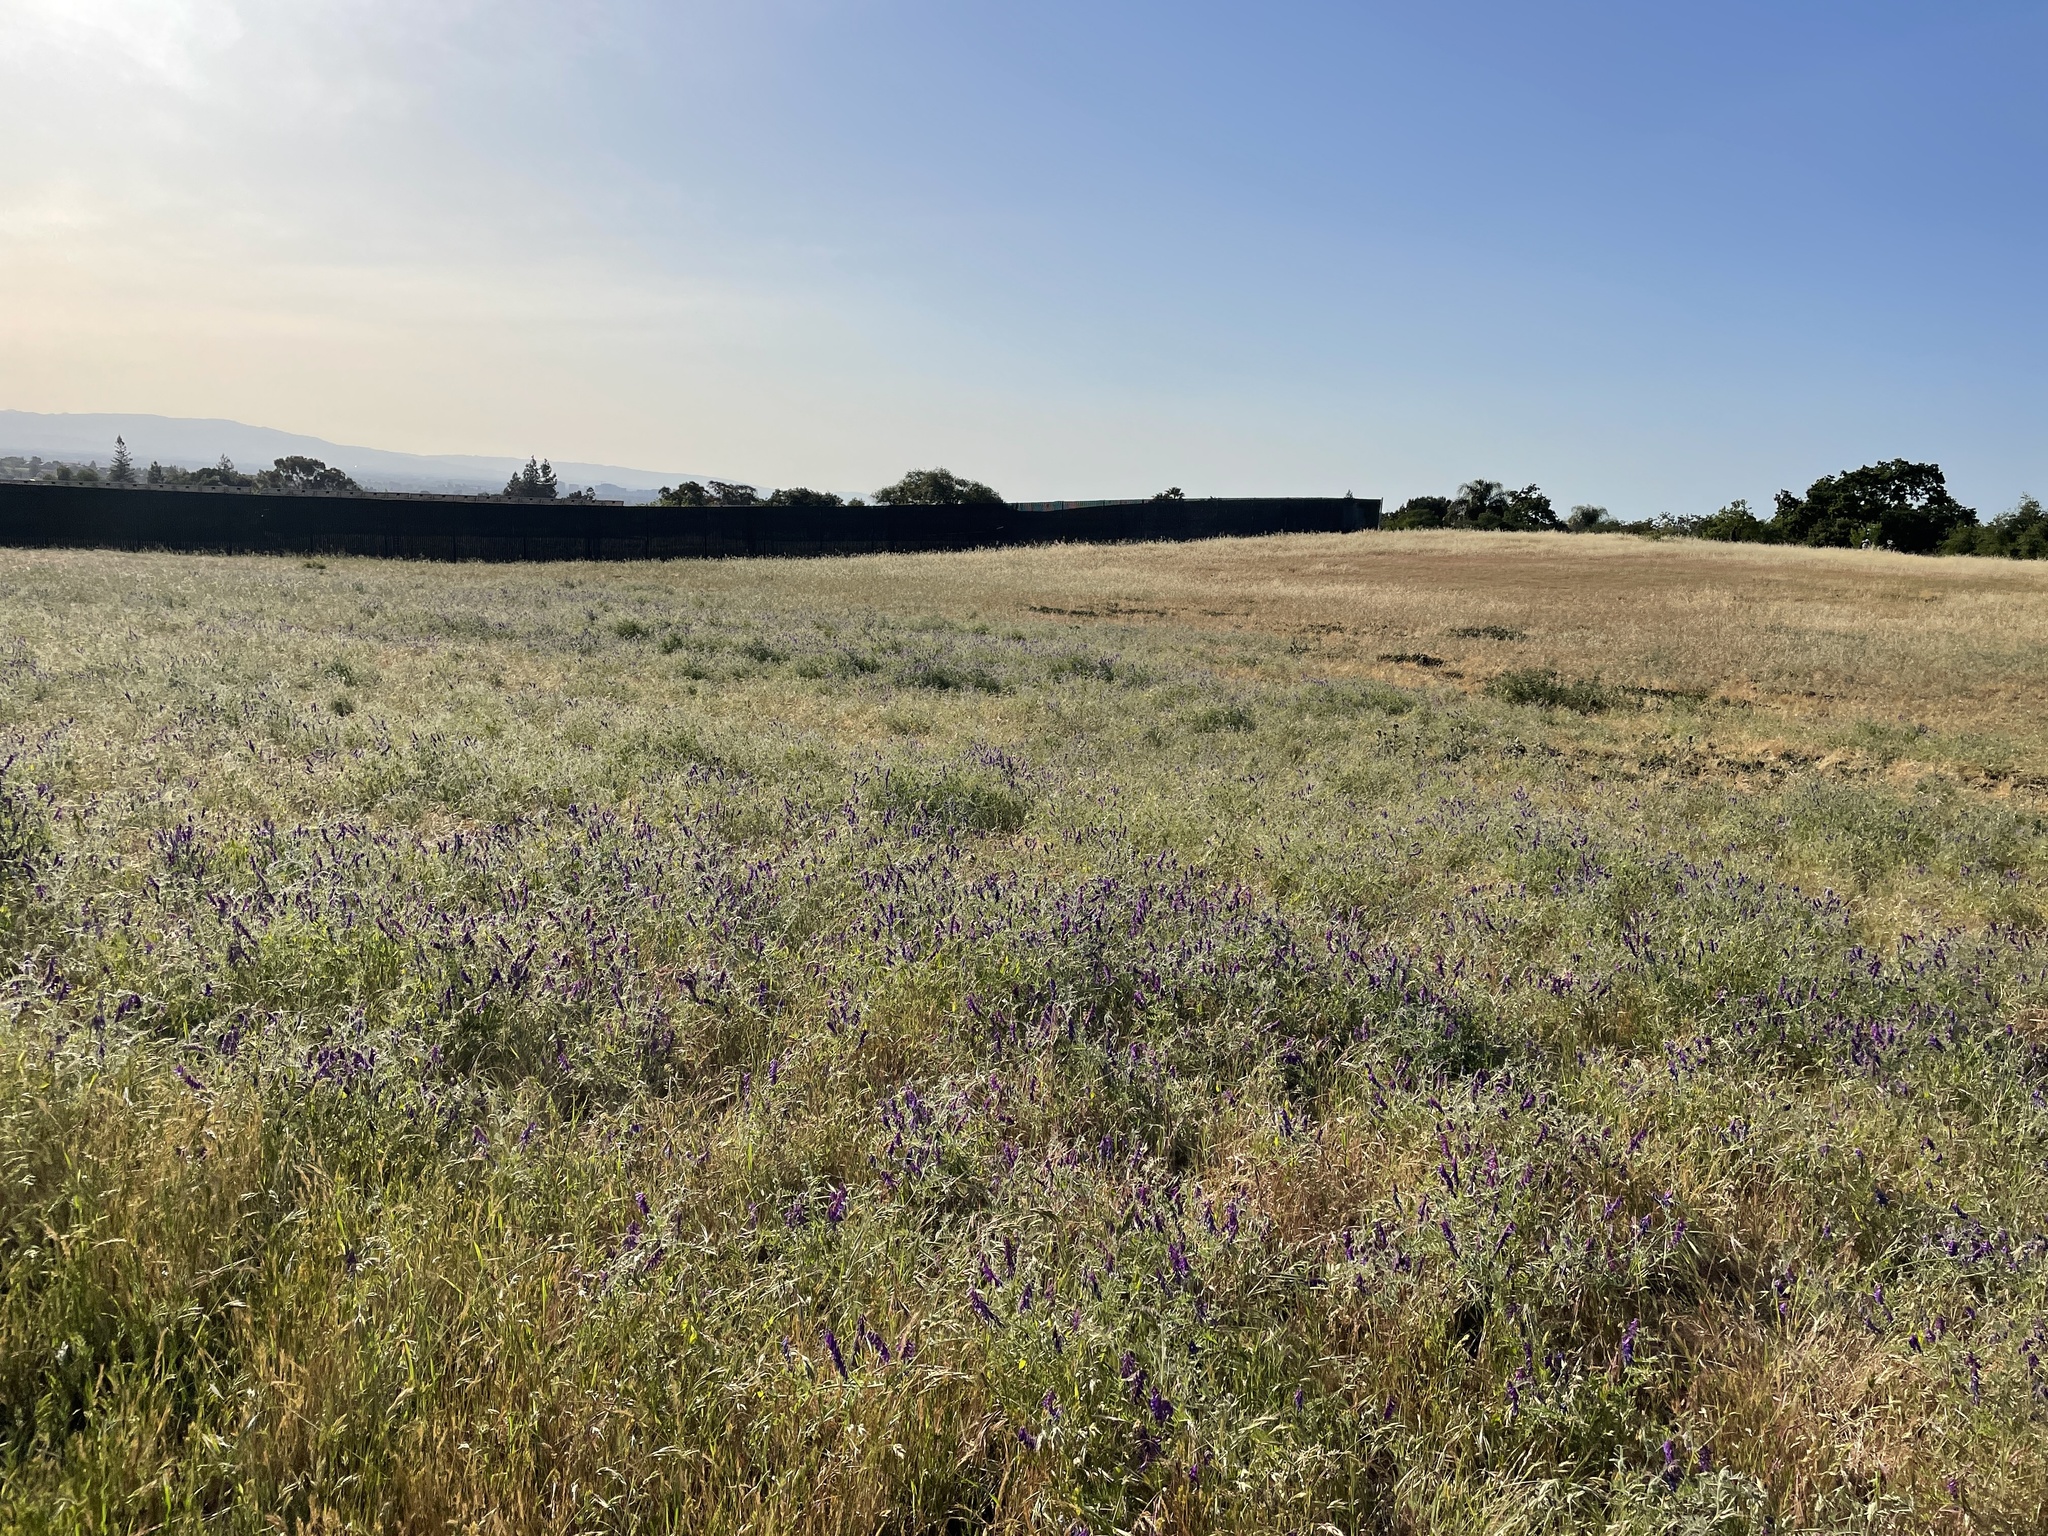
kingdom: Plantae
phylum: Tracheophyta
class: Magnoliopsida
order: Fabales
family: Fabaceae
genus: Vicia
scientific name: Vicia villosa
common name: Fodder vetch
